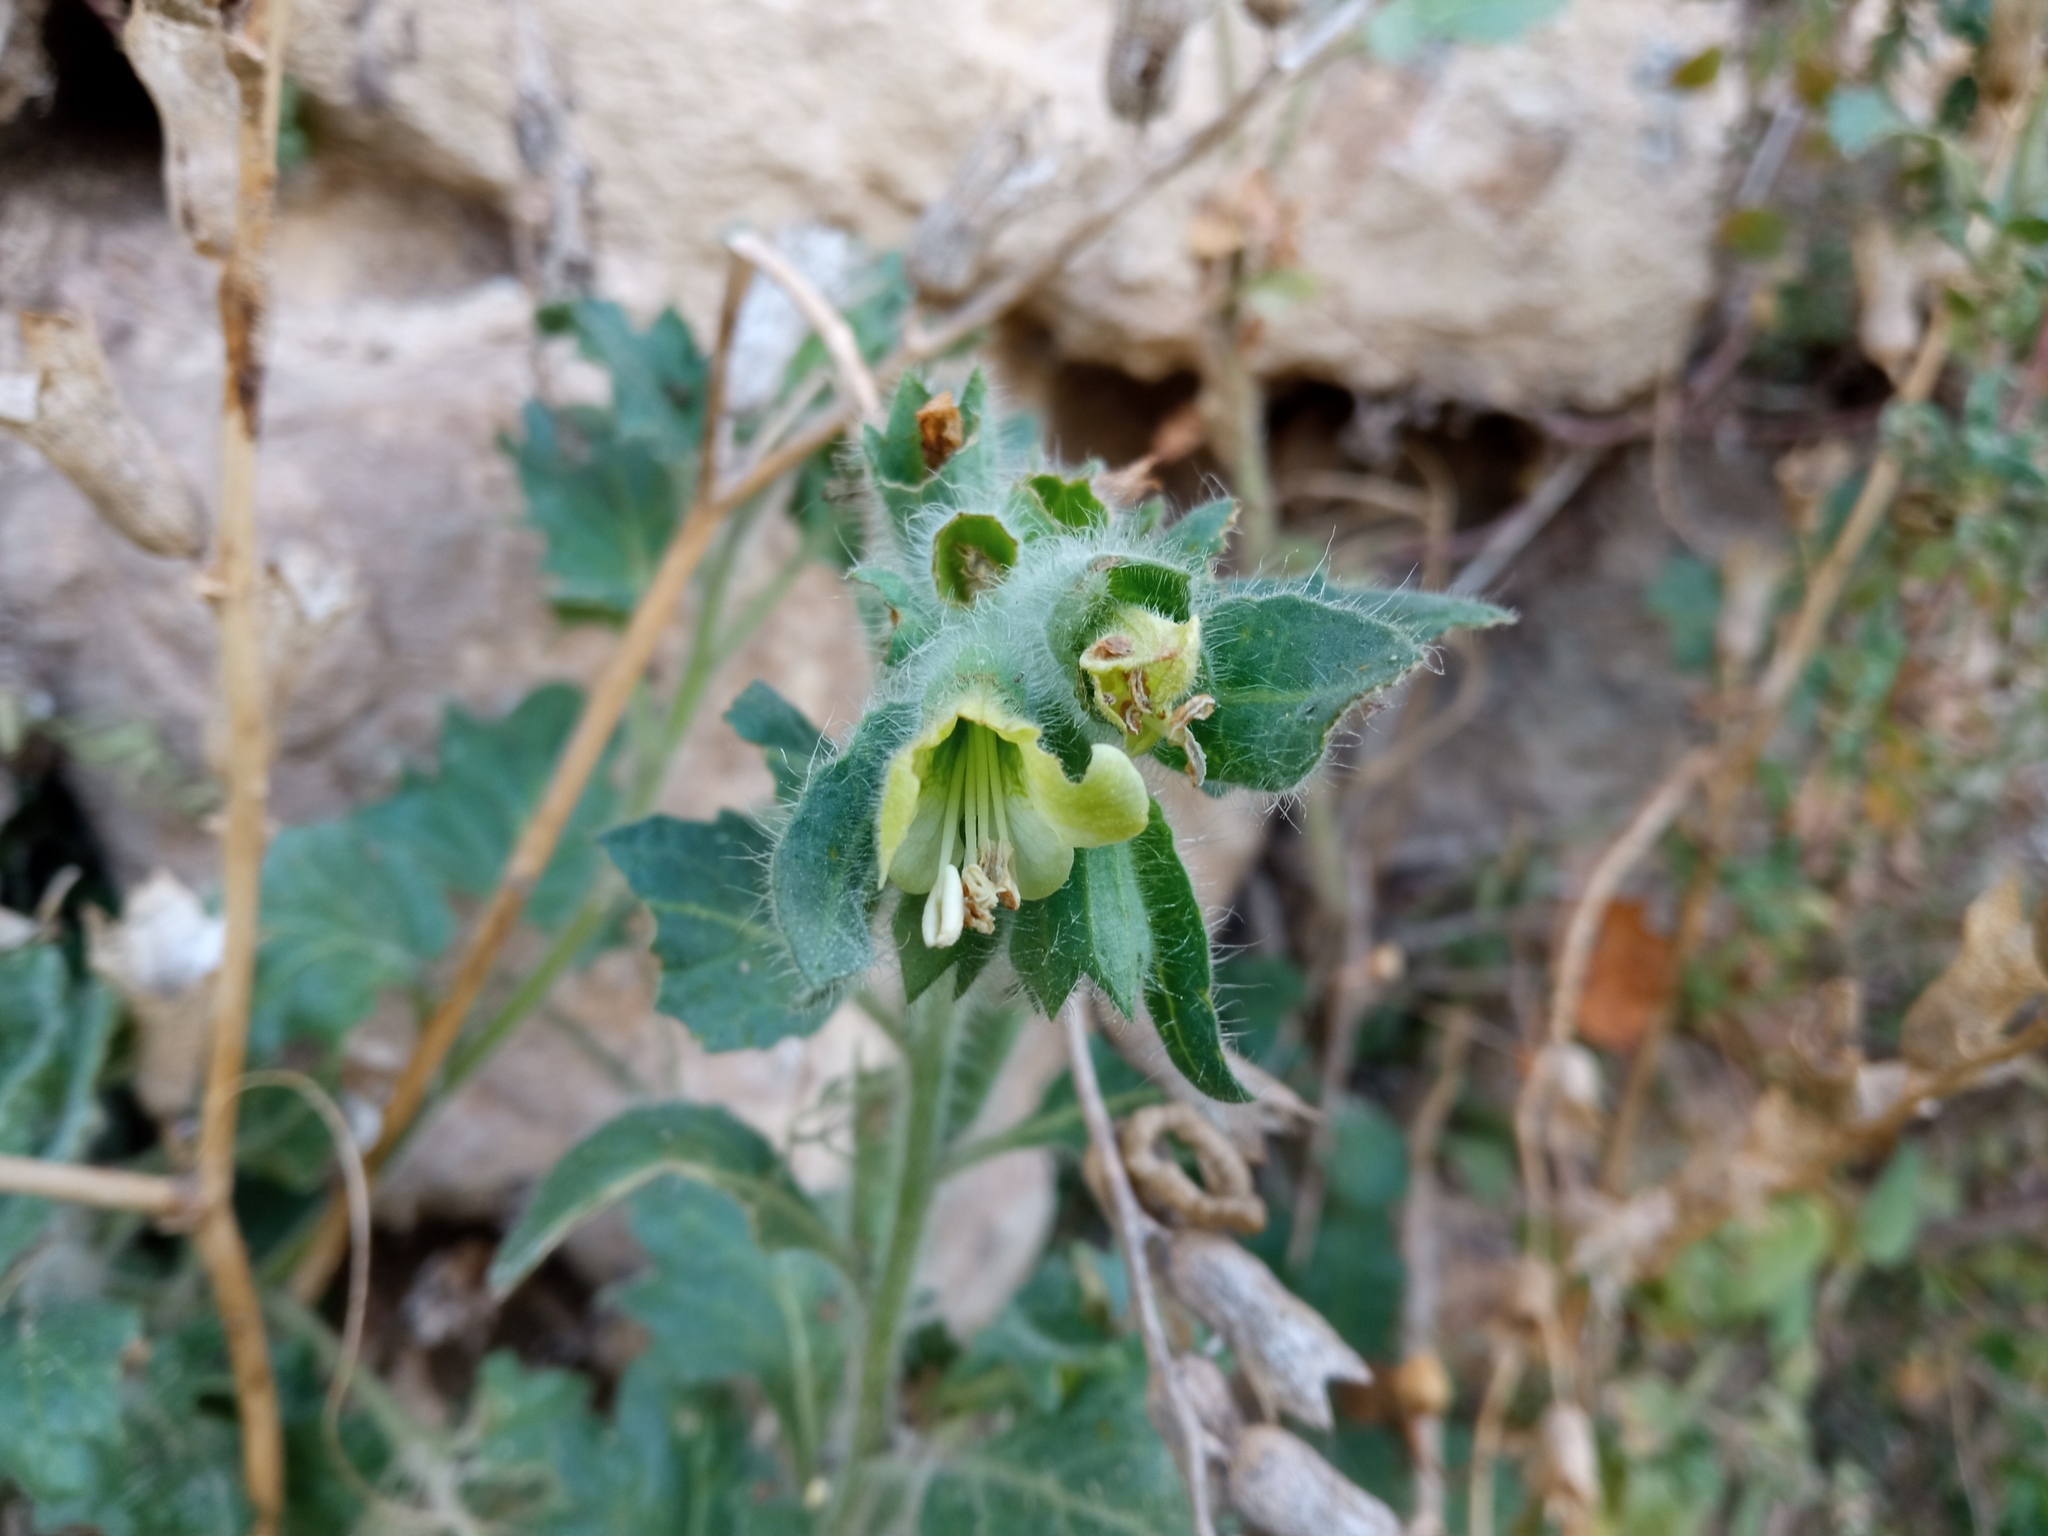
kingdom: Plantae
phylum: Tracheophyta
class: Magnoliopsida
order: Solanales
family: Solanaceae
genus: Hyoscyamus
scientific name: Hyoscyamus albus
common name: White henbane
